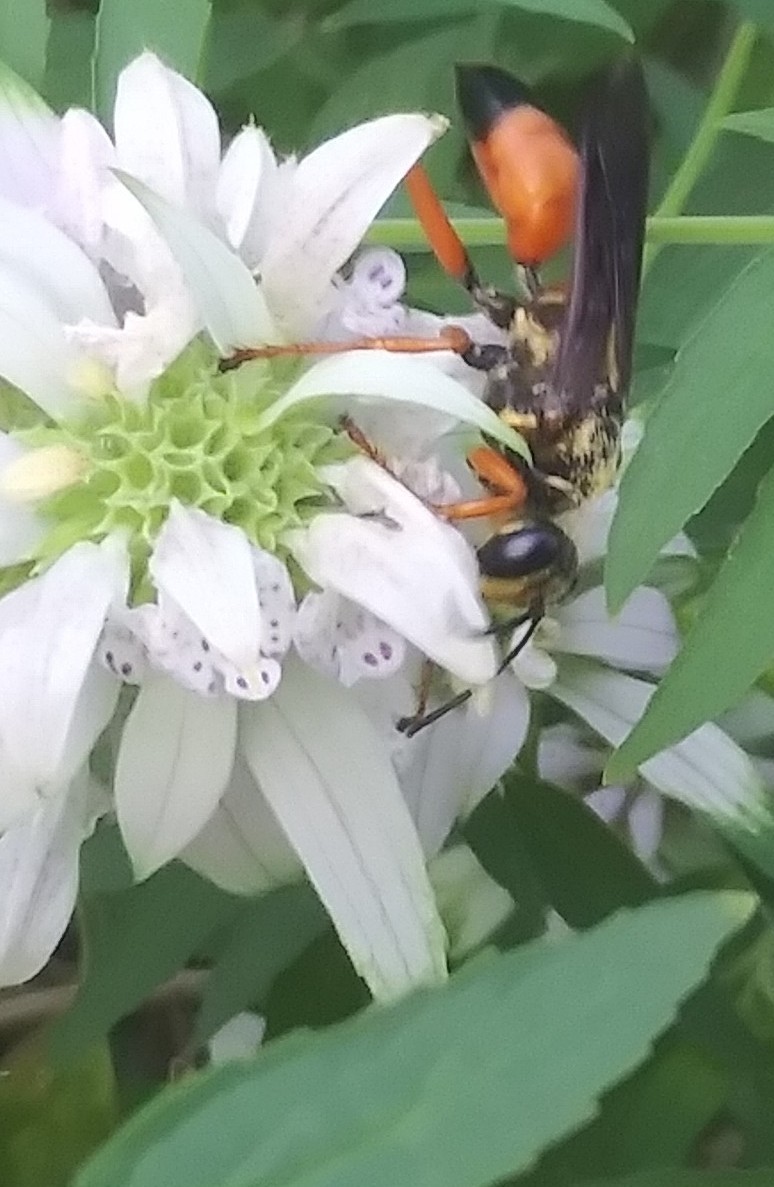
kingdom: Animalia
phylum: Arthropoda
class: Insecta
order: Hymenoptera
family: Sphecidae
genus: Sphex
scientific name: Sphex ichneumoneus
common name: Great golden digger wasp
